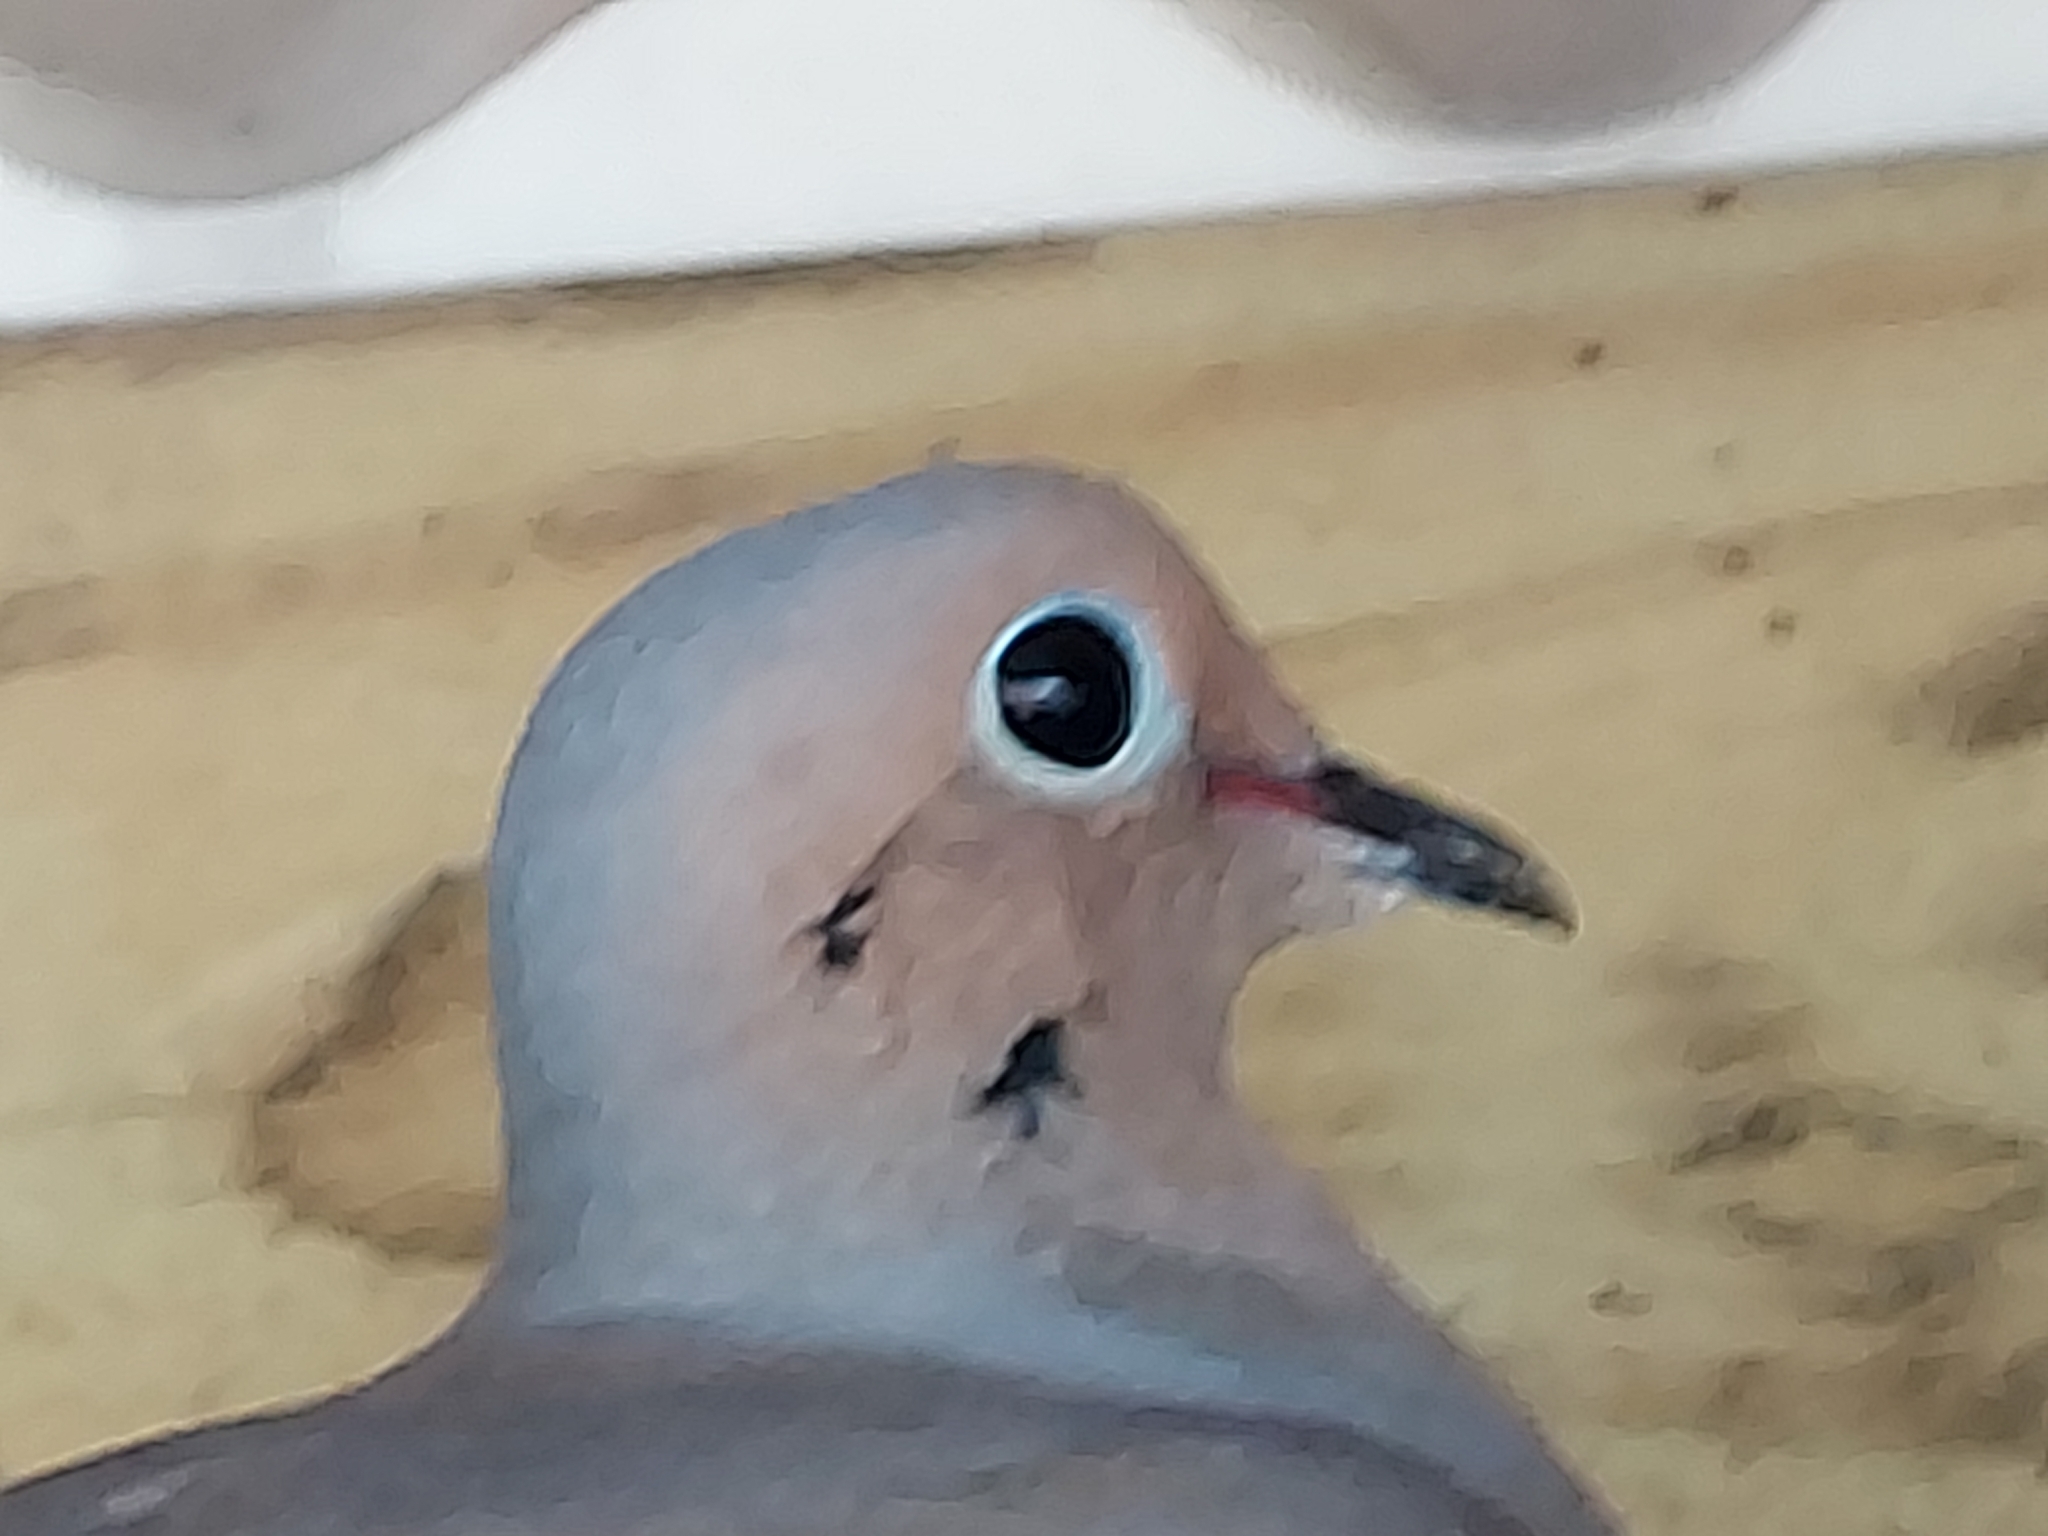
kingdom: Animalia
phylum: Chordata
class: Aves
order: Columbiformes
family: Columbidae
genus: Zenaida
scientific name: Zenaida macroura
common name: Mourning dove
